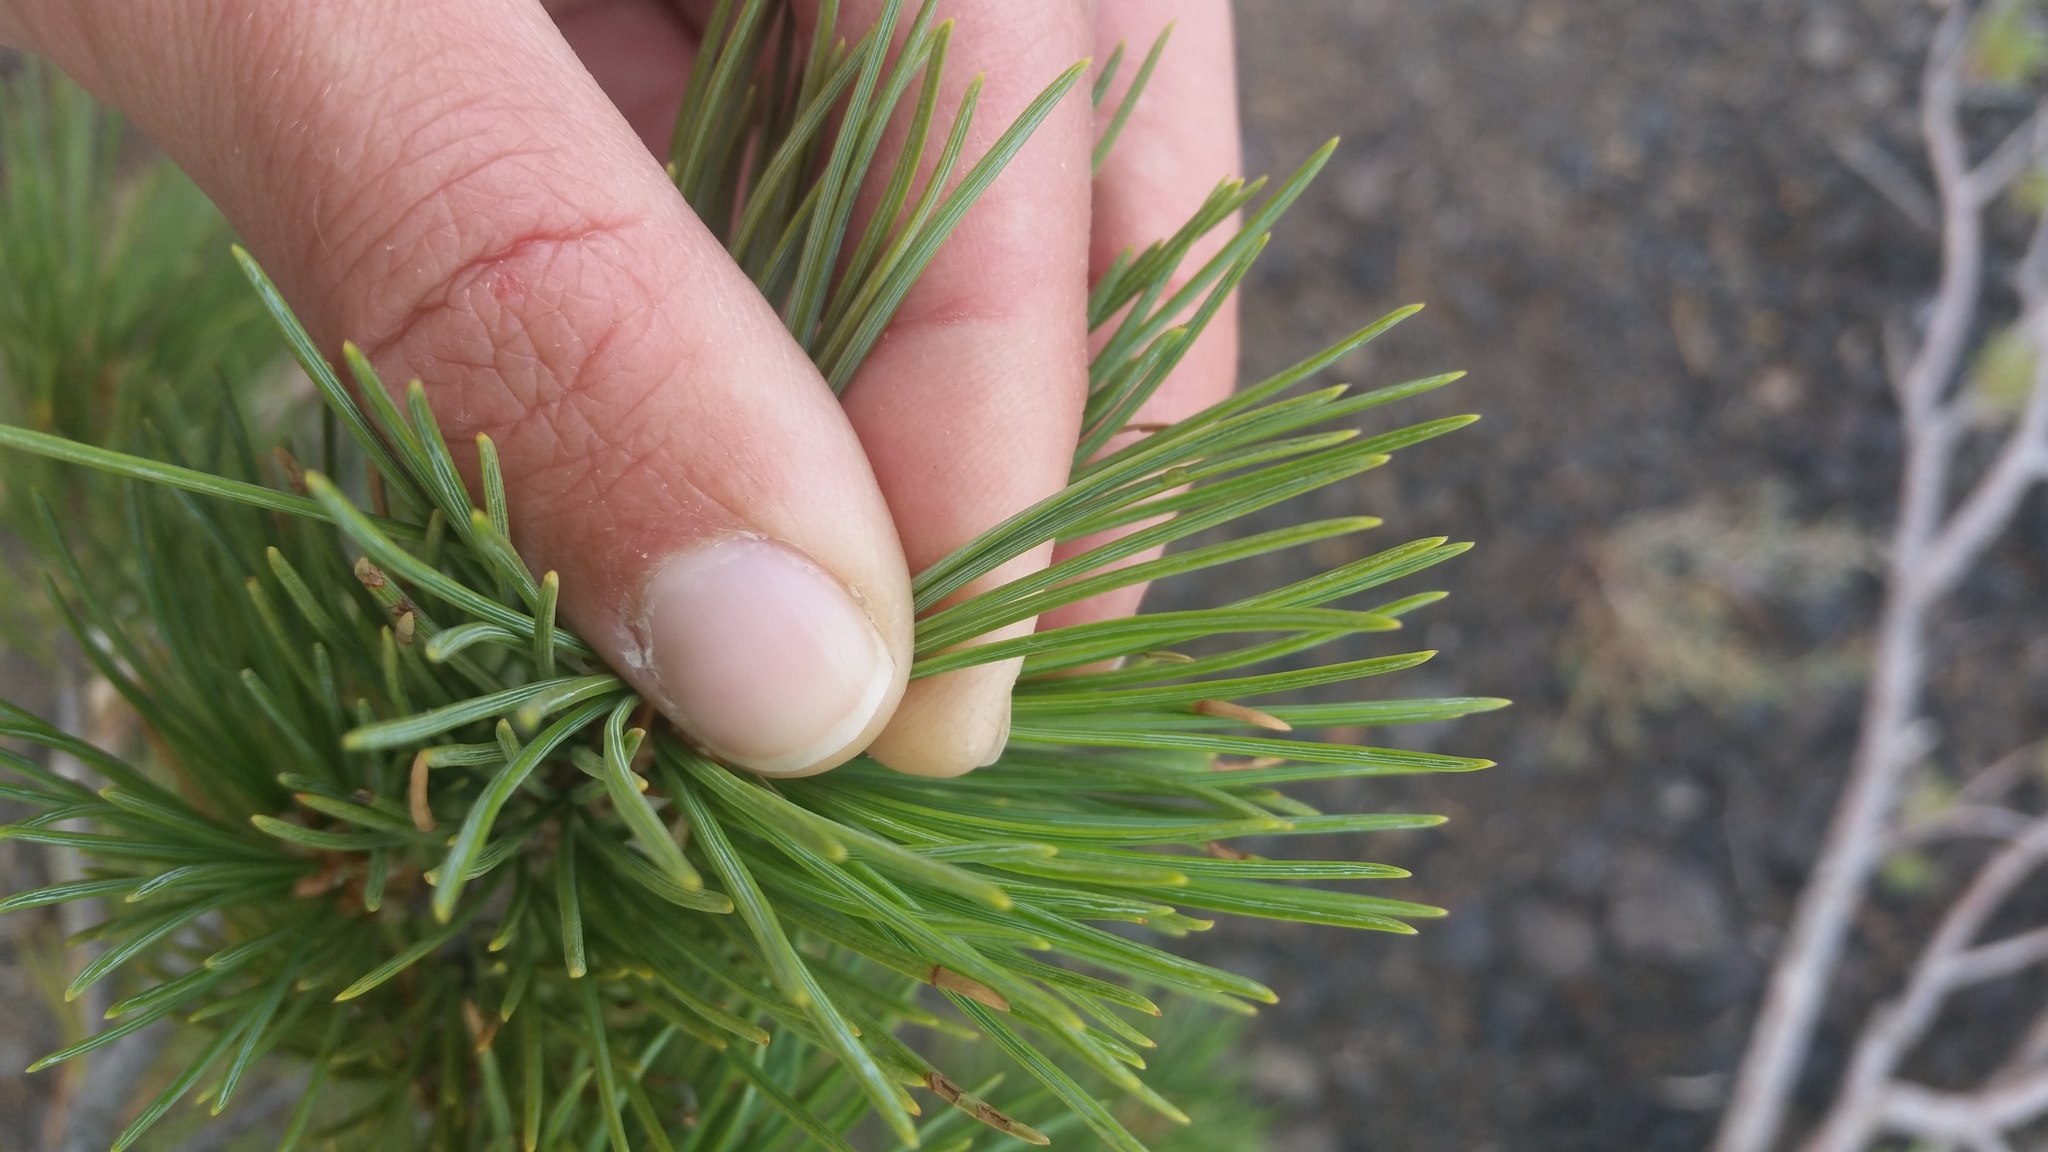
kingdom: Plantae
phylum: Tracheophyta
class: Pinopsida
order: Pinales
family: Pinaceae
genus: Pinus
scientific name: Pinus flexilis
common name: Limber pine
